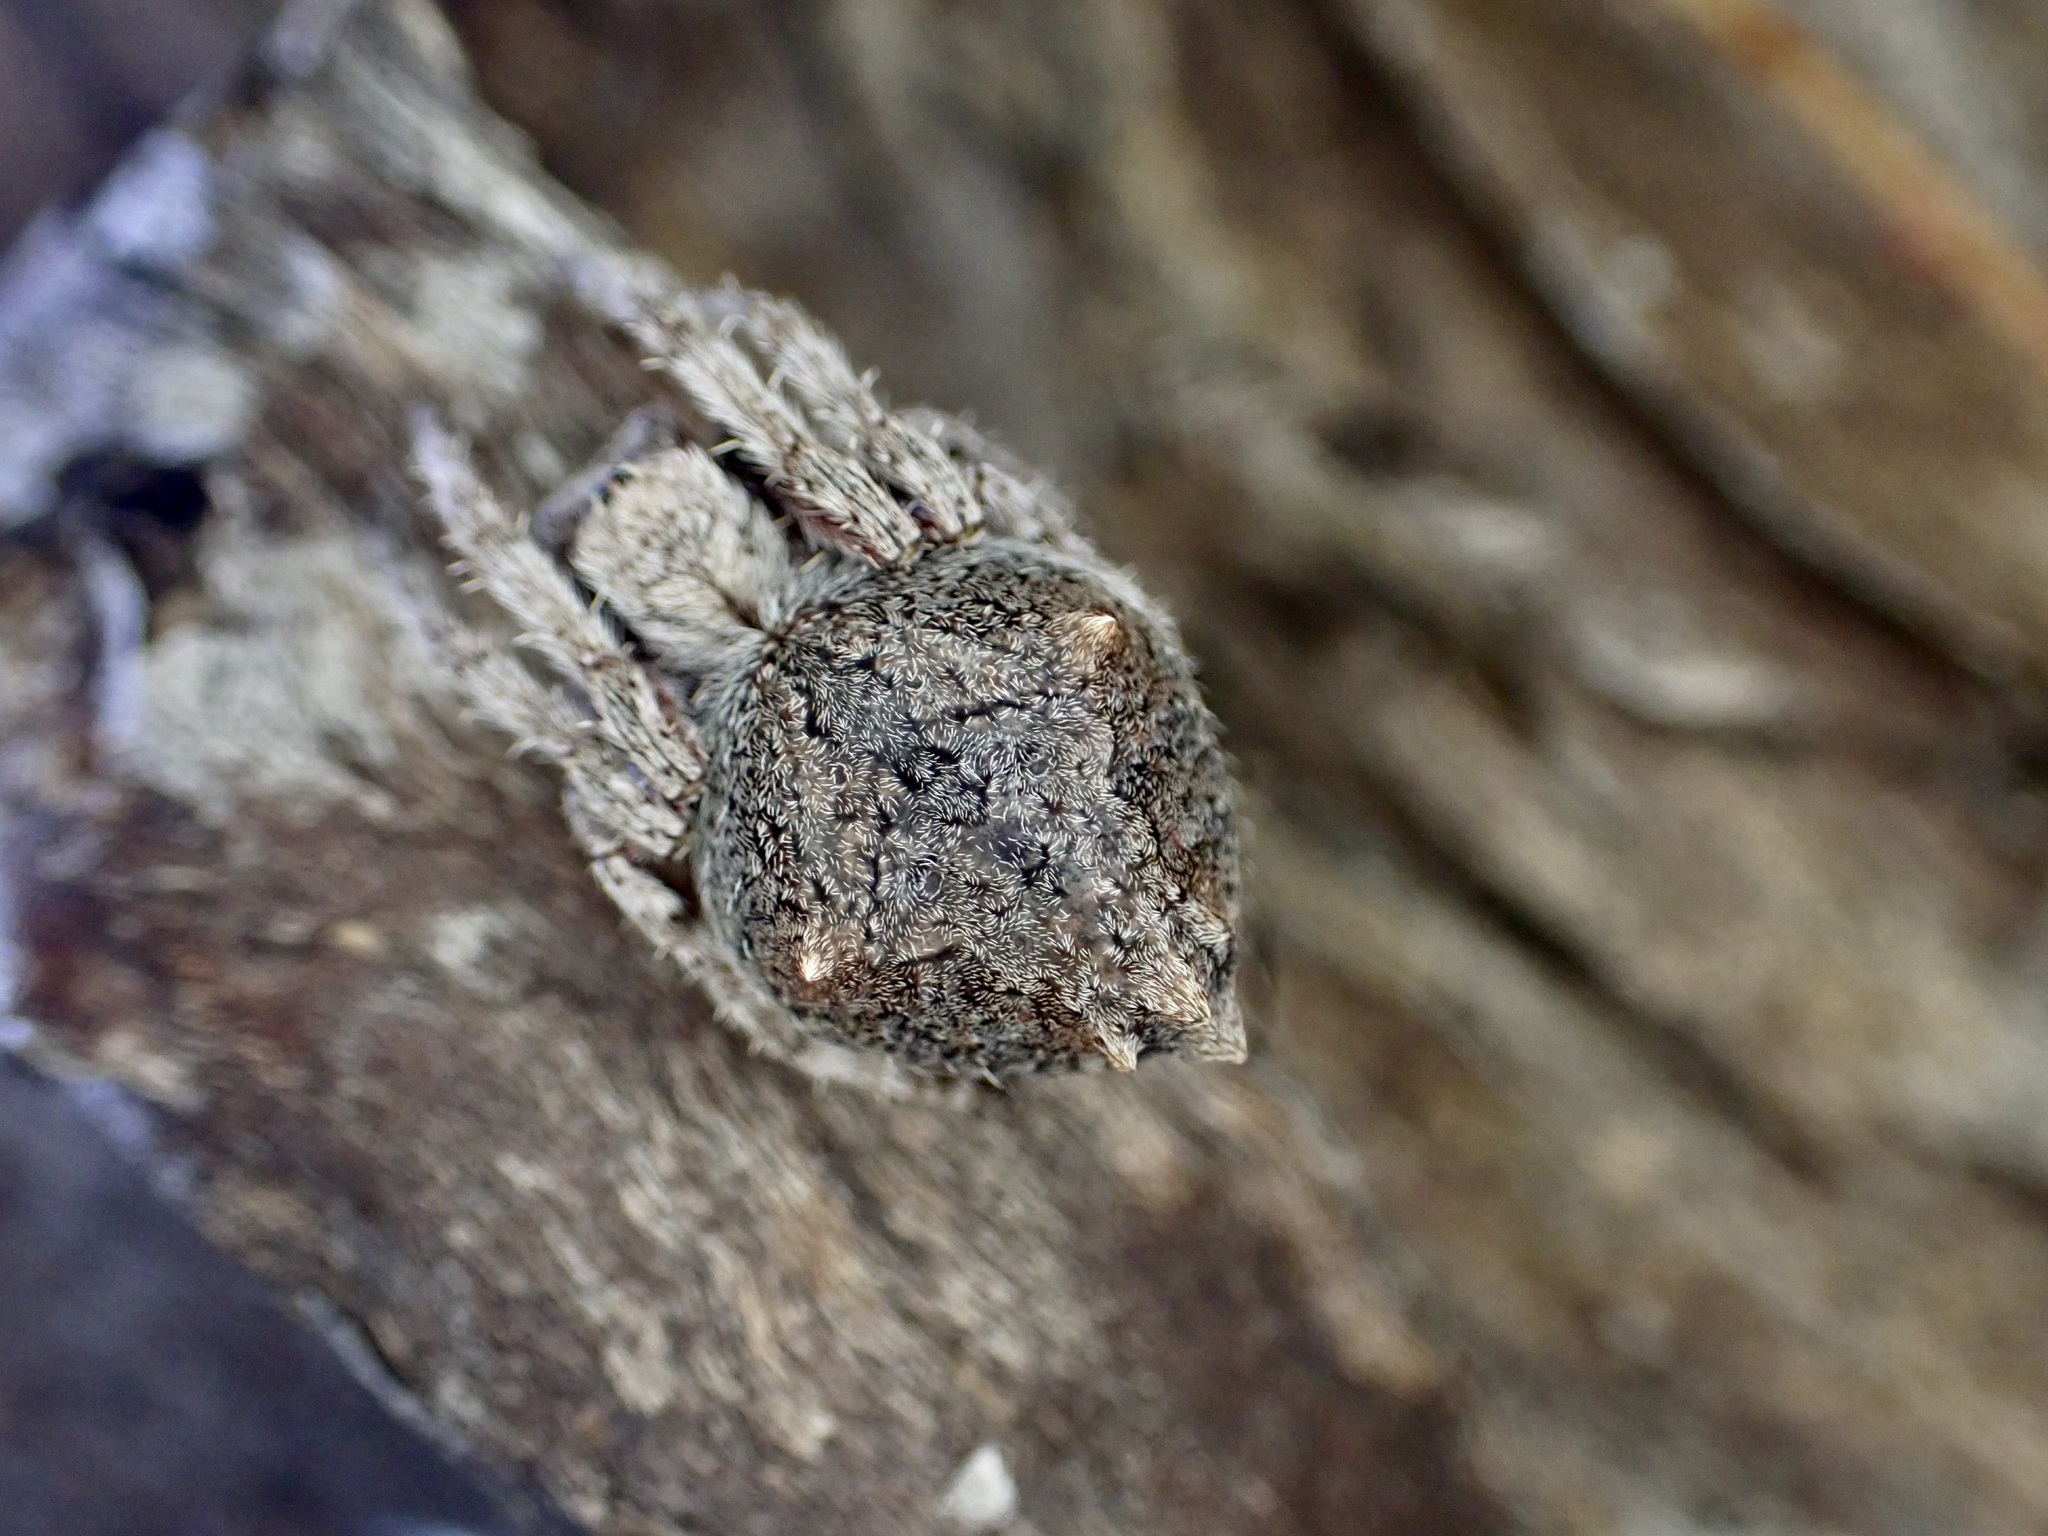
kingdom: Animalia
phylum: Arthropoda
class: Arachnida
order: Araneae
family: Araneidae
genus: Eriophora
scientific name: Eriophora pustulosa
